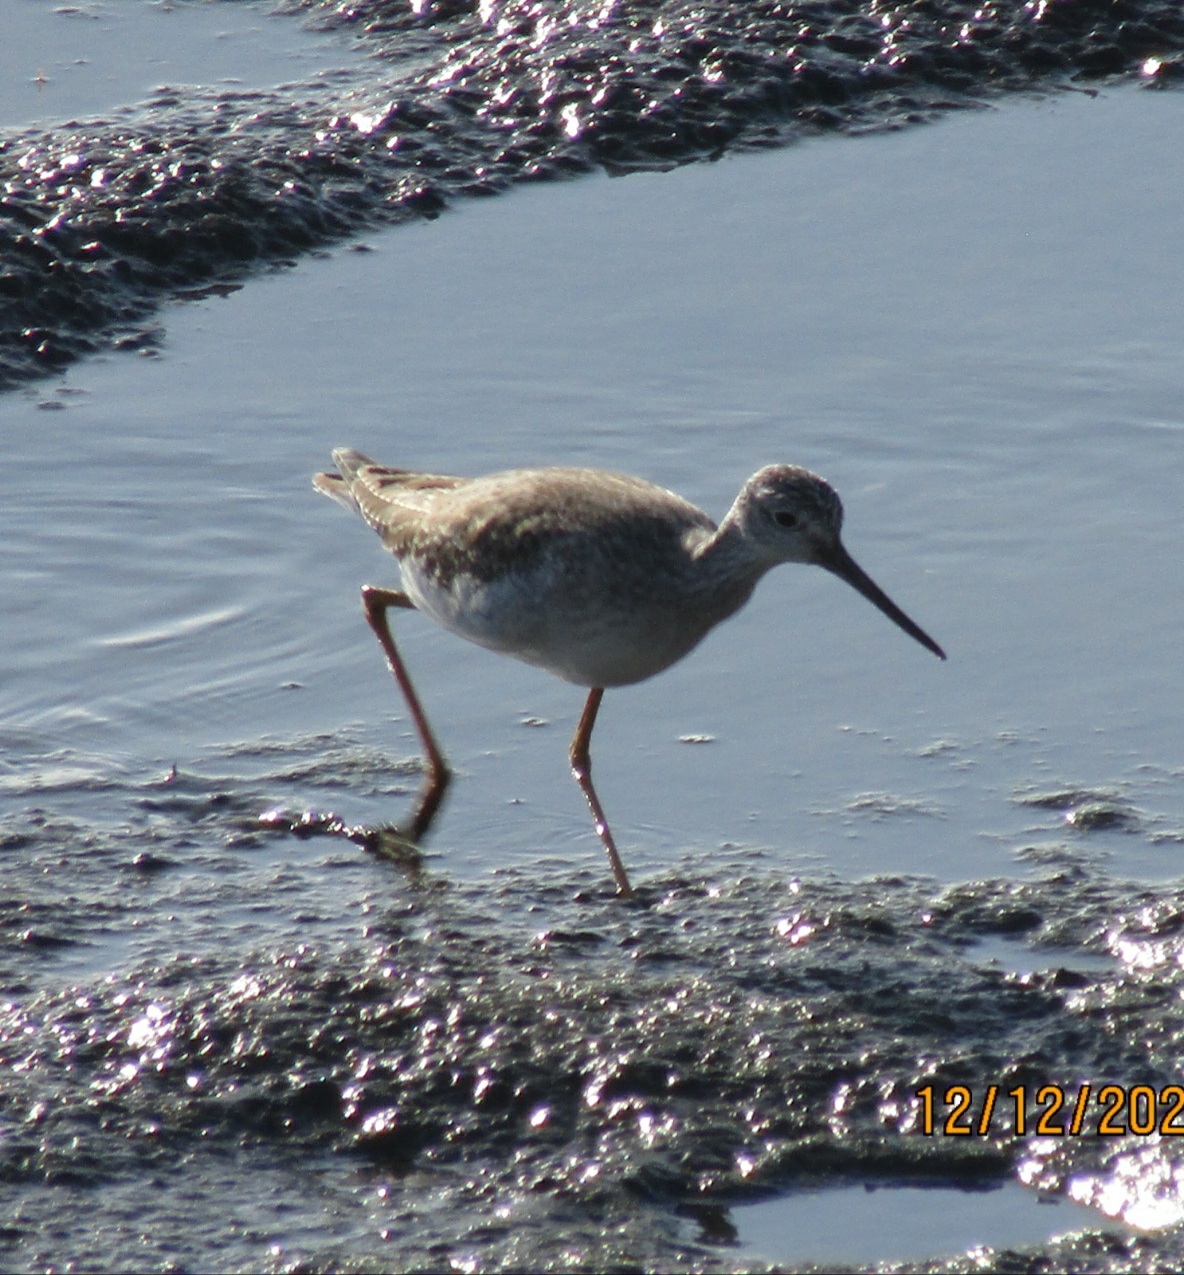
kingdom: Animalia
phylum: Chordata
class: Aves
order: Charadriiformes
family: Scolopacidae
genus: Tringa
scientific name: Tringa melanoleuca
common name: Greater yellowlegs
